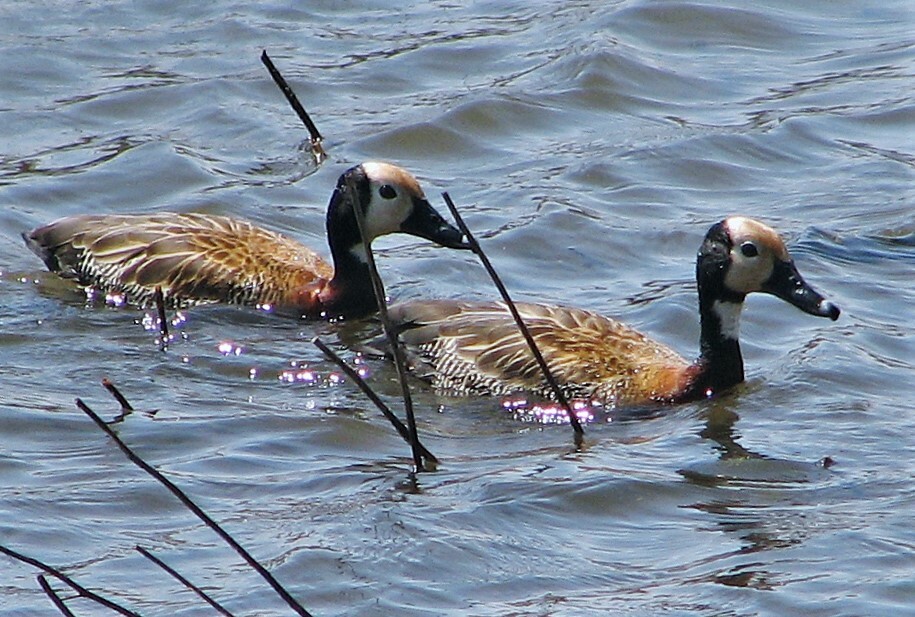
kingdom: Animalia
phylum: Chordata
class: Aves
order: Anseriformes
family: Anatidae
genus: Dendrocygna
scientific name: Dendrocygna viduata
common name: White-faced whistling duck
